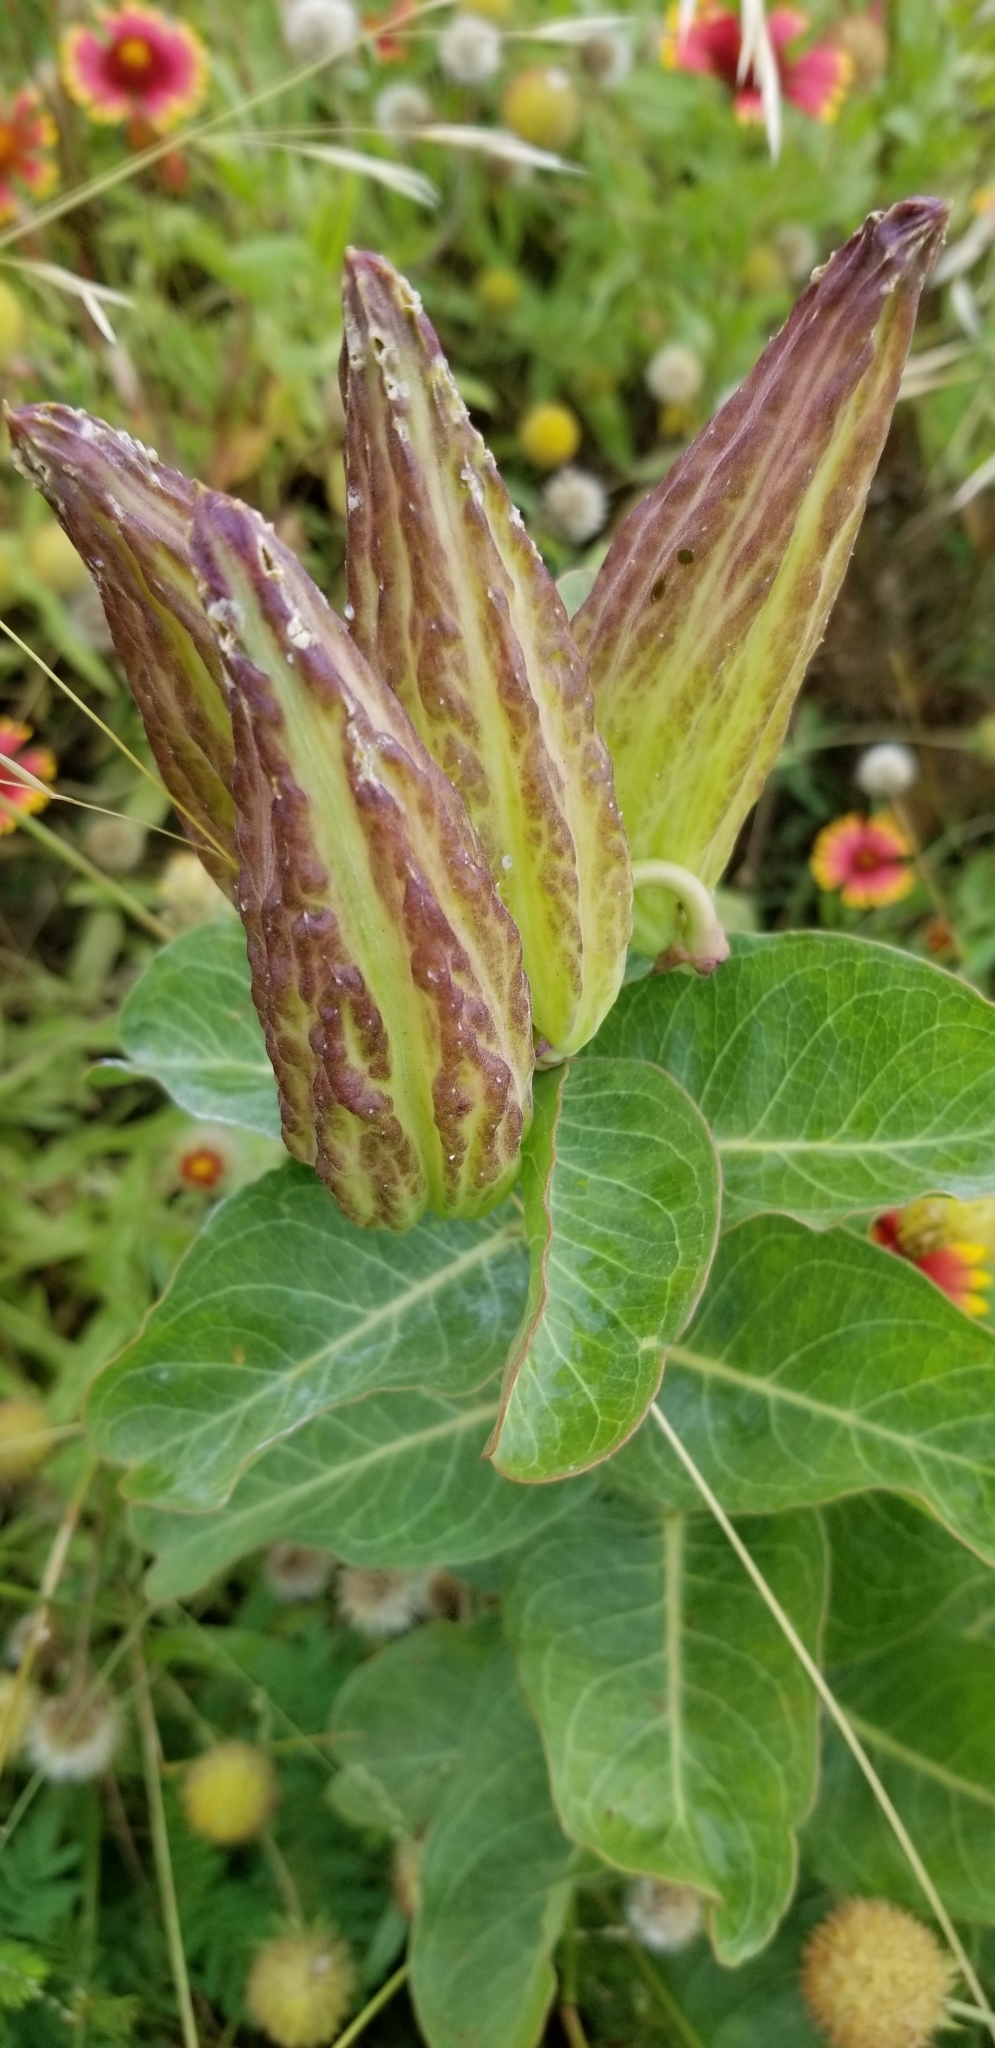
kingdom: Plantae
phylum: Tracheophyta
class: Magnoliopsida
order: Gentianales
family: Apocynaceae
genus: Asclepias
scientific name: Asclepias viridis
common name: Antelope-horns
